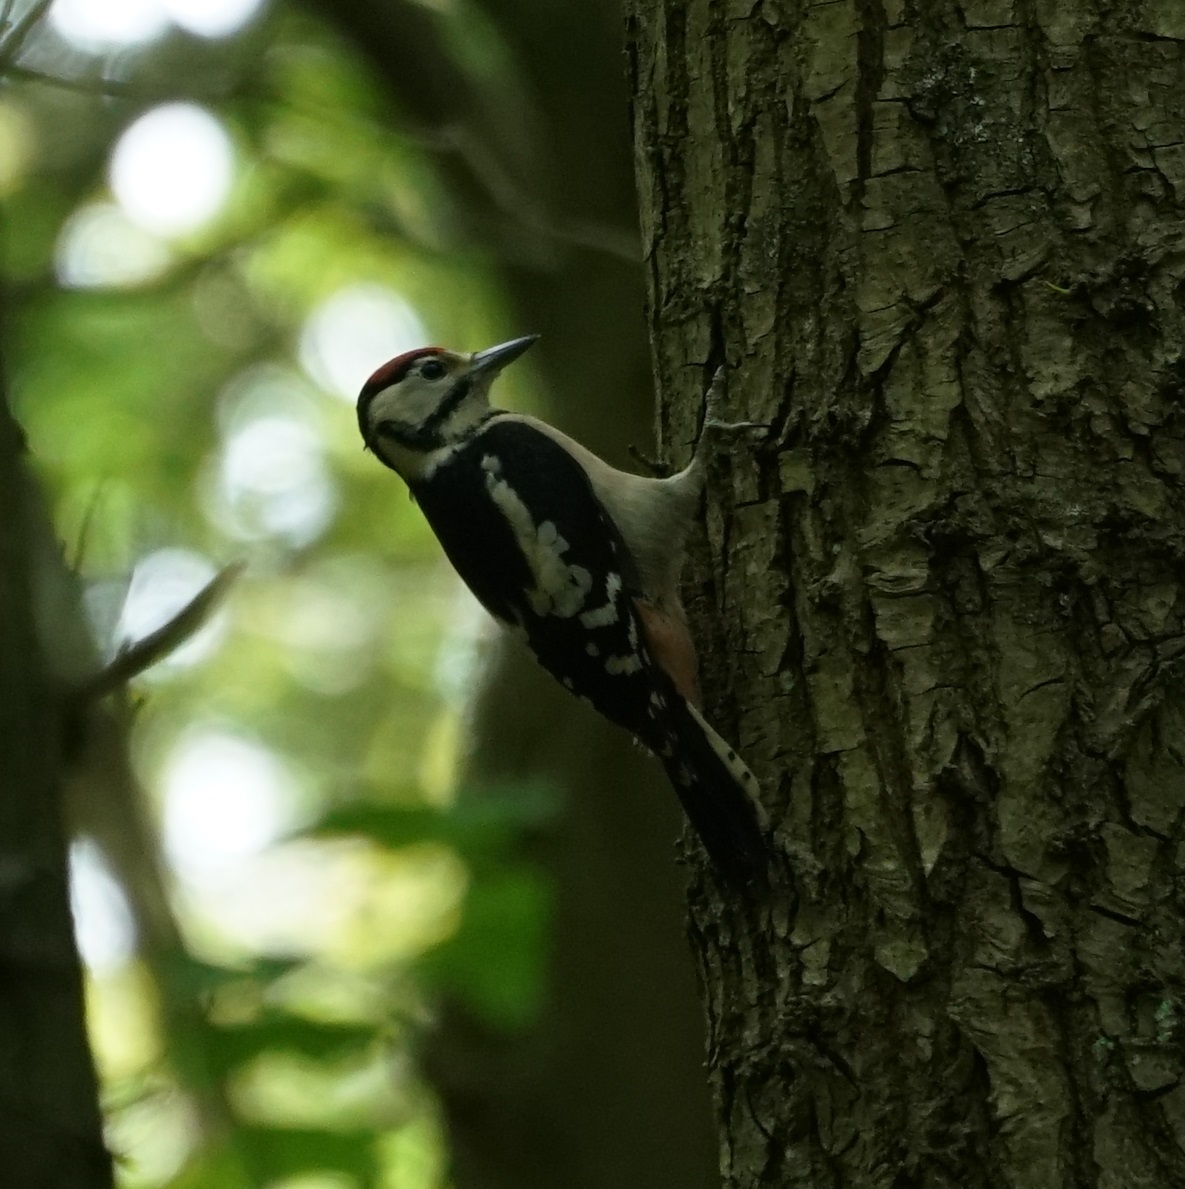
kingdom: Animalia
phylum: Chordata
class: Aves
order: Piciformes
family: Picidae
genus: Dendrocopos
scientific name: Dendrocopos major
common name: Great spotted woodpecker
